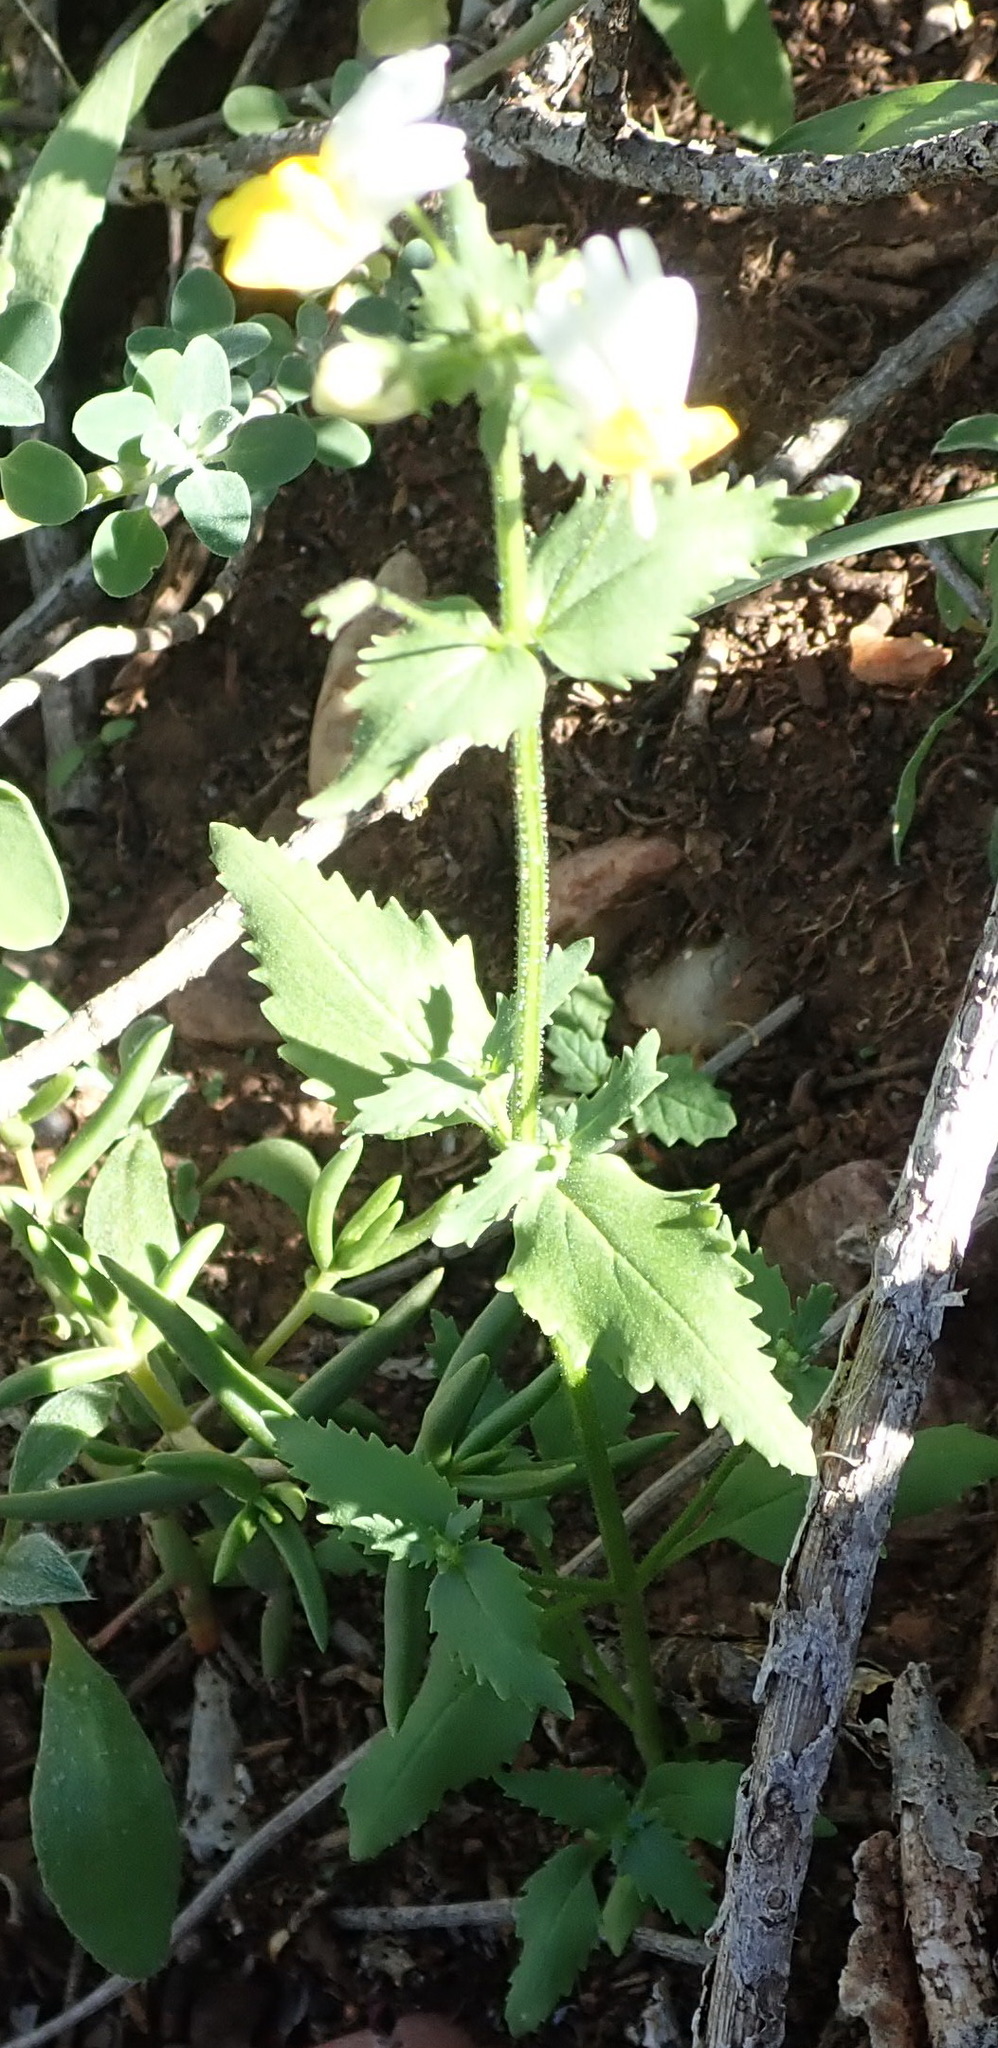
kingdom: Plantae
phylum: Tracheophyta
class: Magnoliopsida
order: Lamiales
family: Scrophulariaceae
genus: Nemesia
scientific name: Nemesia ligulata
